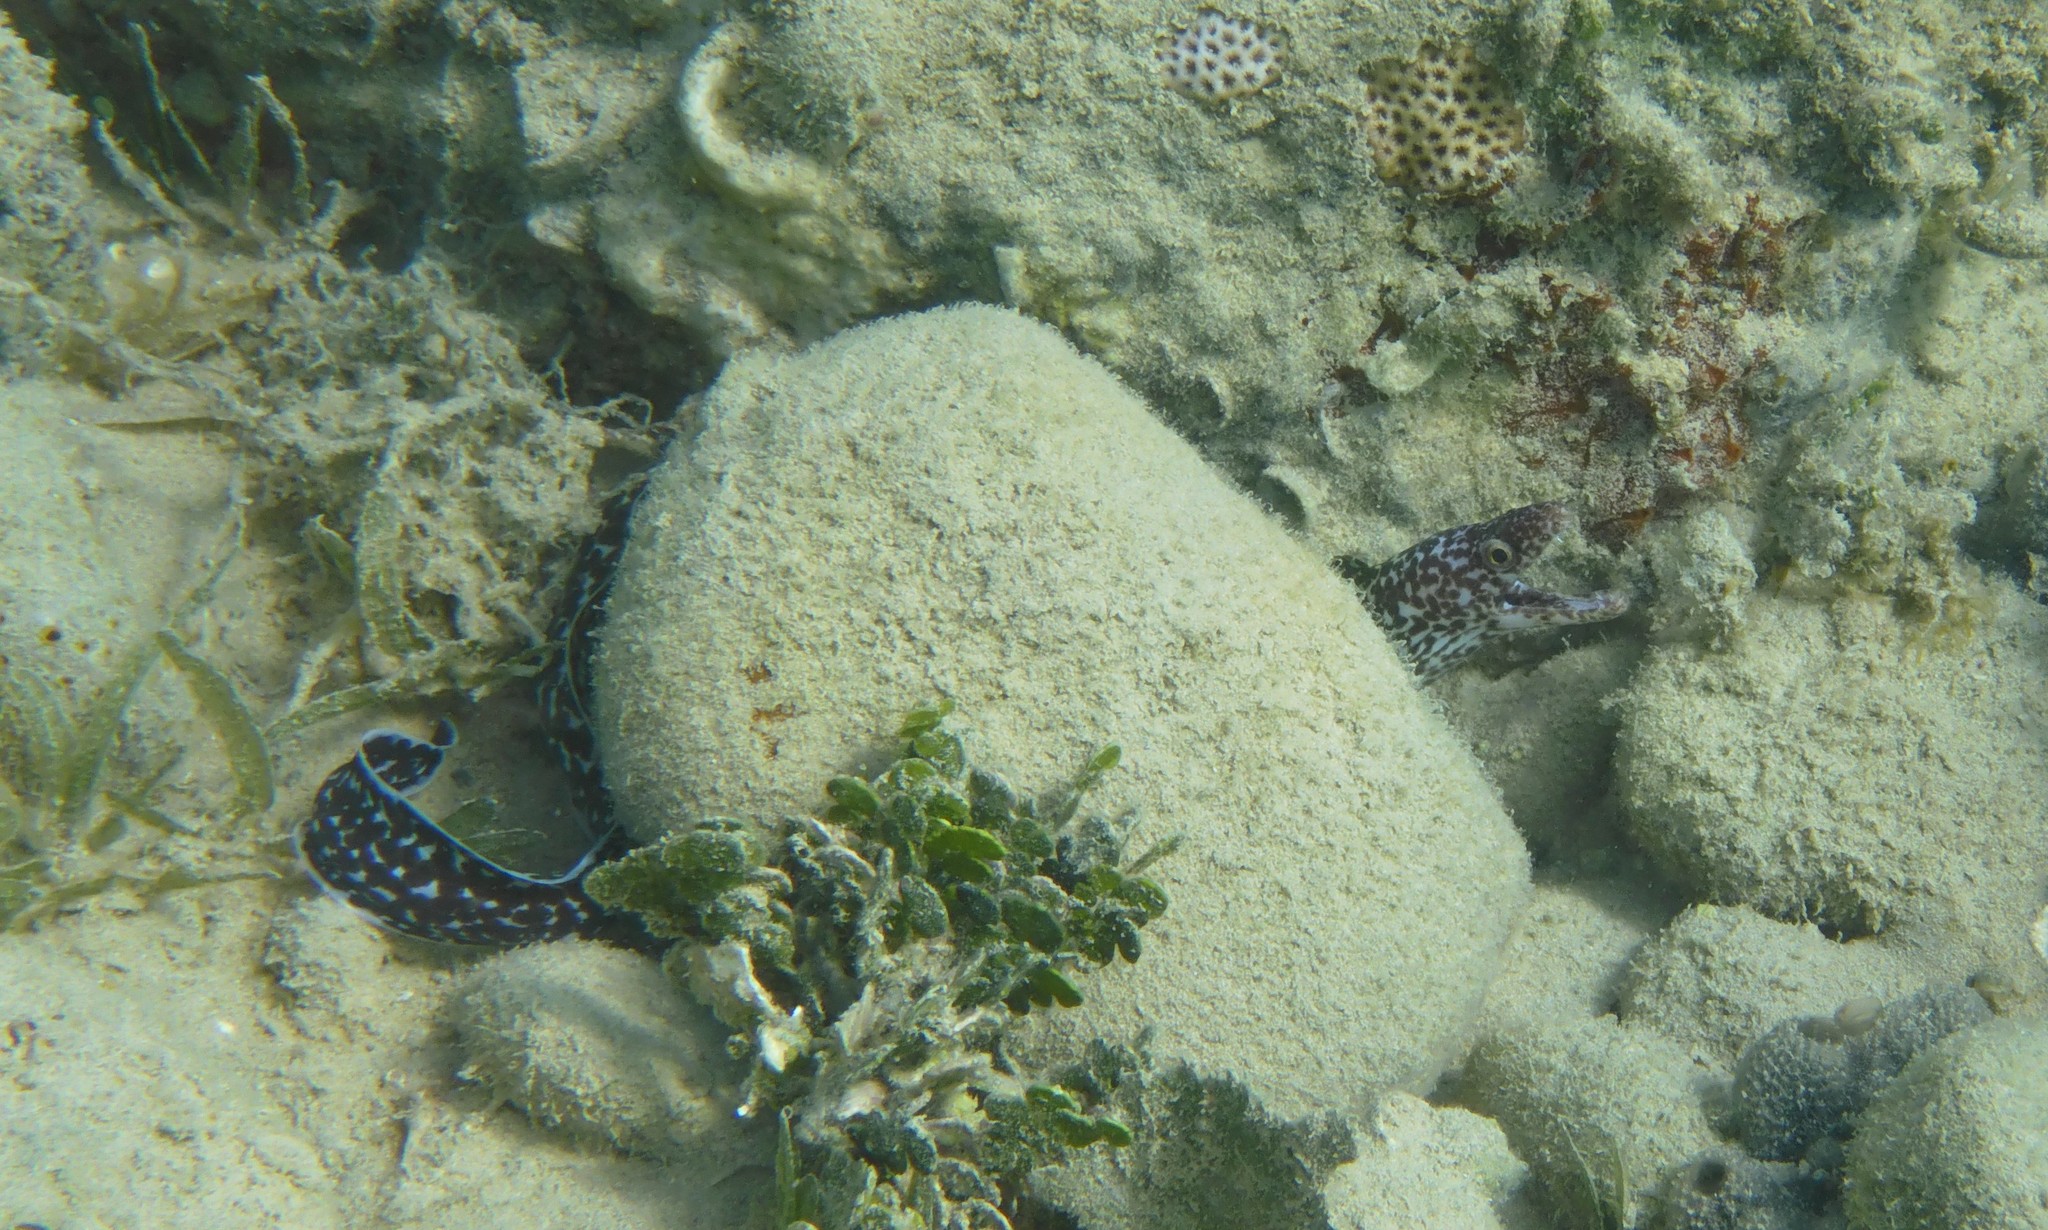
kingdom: Animalia
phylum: Chordata
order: Anguilliformes
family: Muraenidae
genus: Gymnothorax
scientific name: Gymnothorax moringa
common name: Spotted moray
